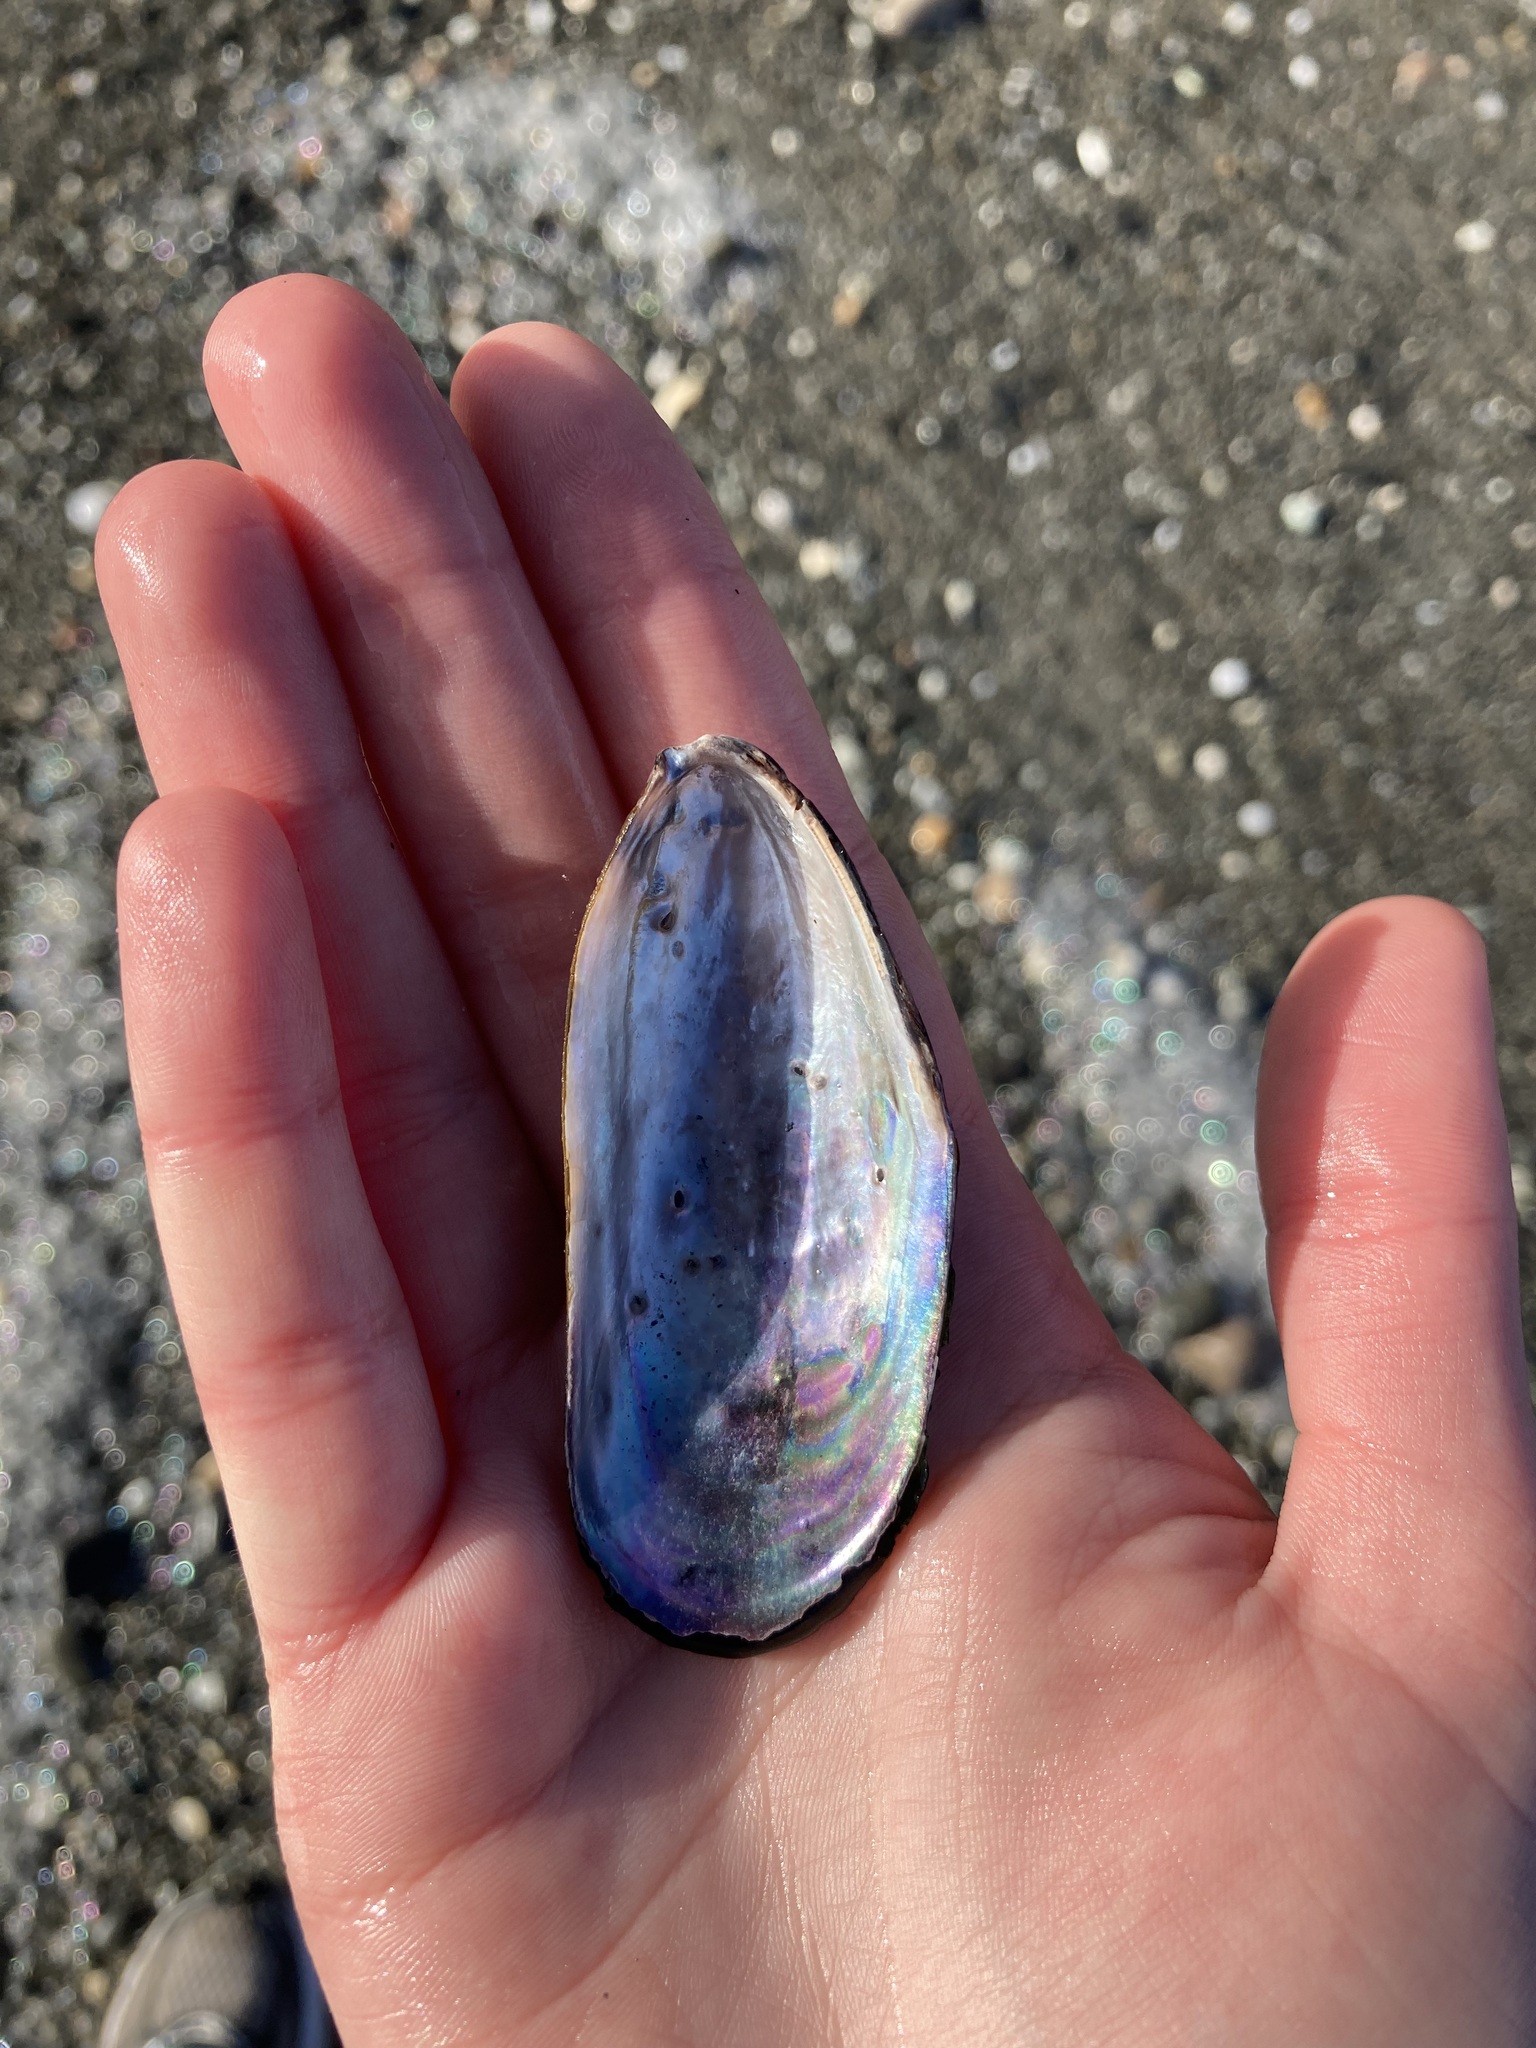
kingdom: Animalia
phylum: Mollusca
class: Bivalvia
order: Mytilida
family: Mytilidae
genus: Perna
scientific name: Perna canaliculus
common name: New zealand greenshelltm
